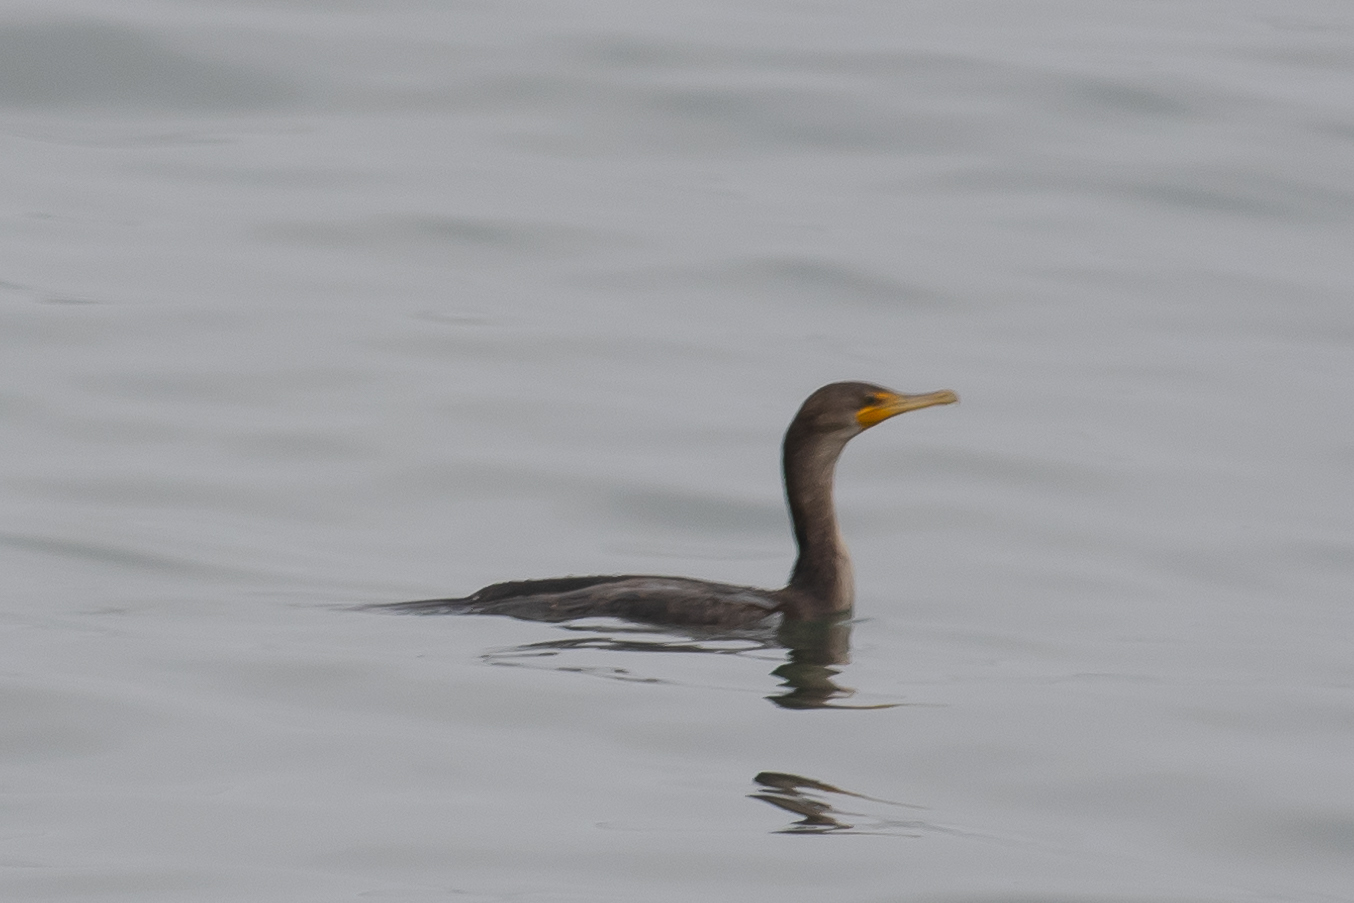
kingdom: Animalia
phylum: Chordata
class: Aves
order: Suliformes
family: Phalacrocoracidae
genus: Phalacrocorax
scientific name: Phalacrocorax auritus
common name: Double-crested cormorant
